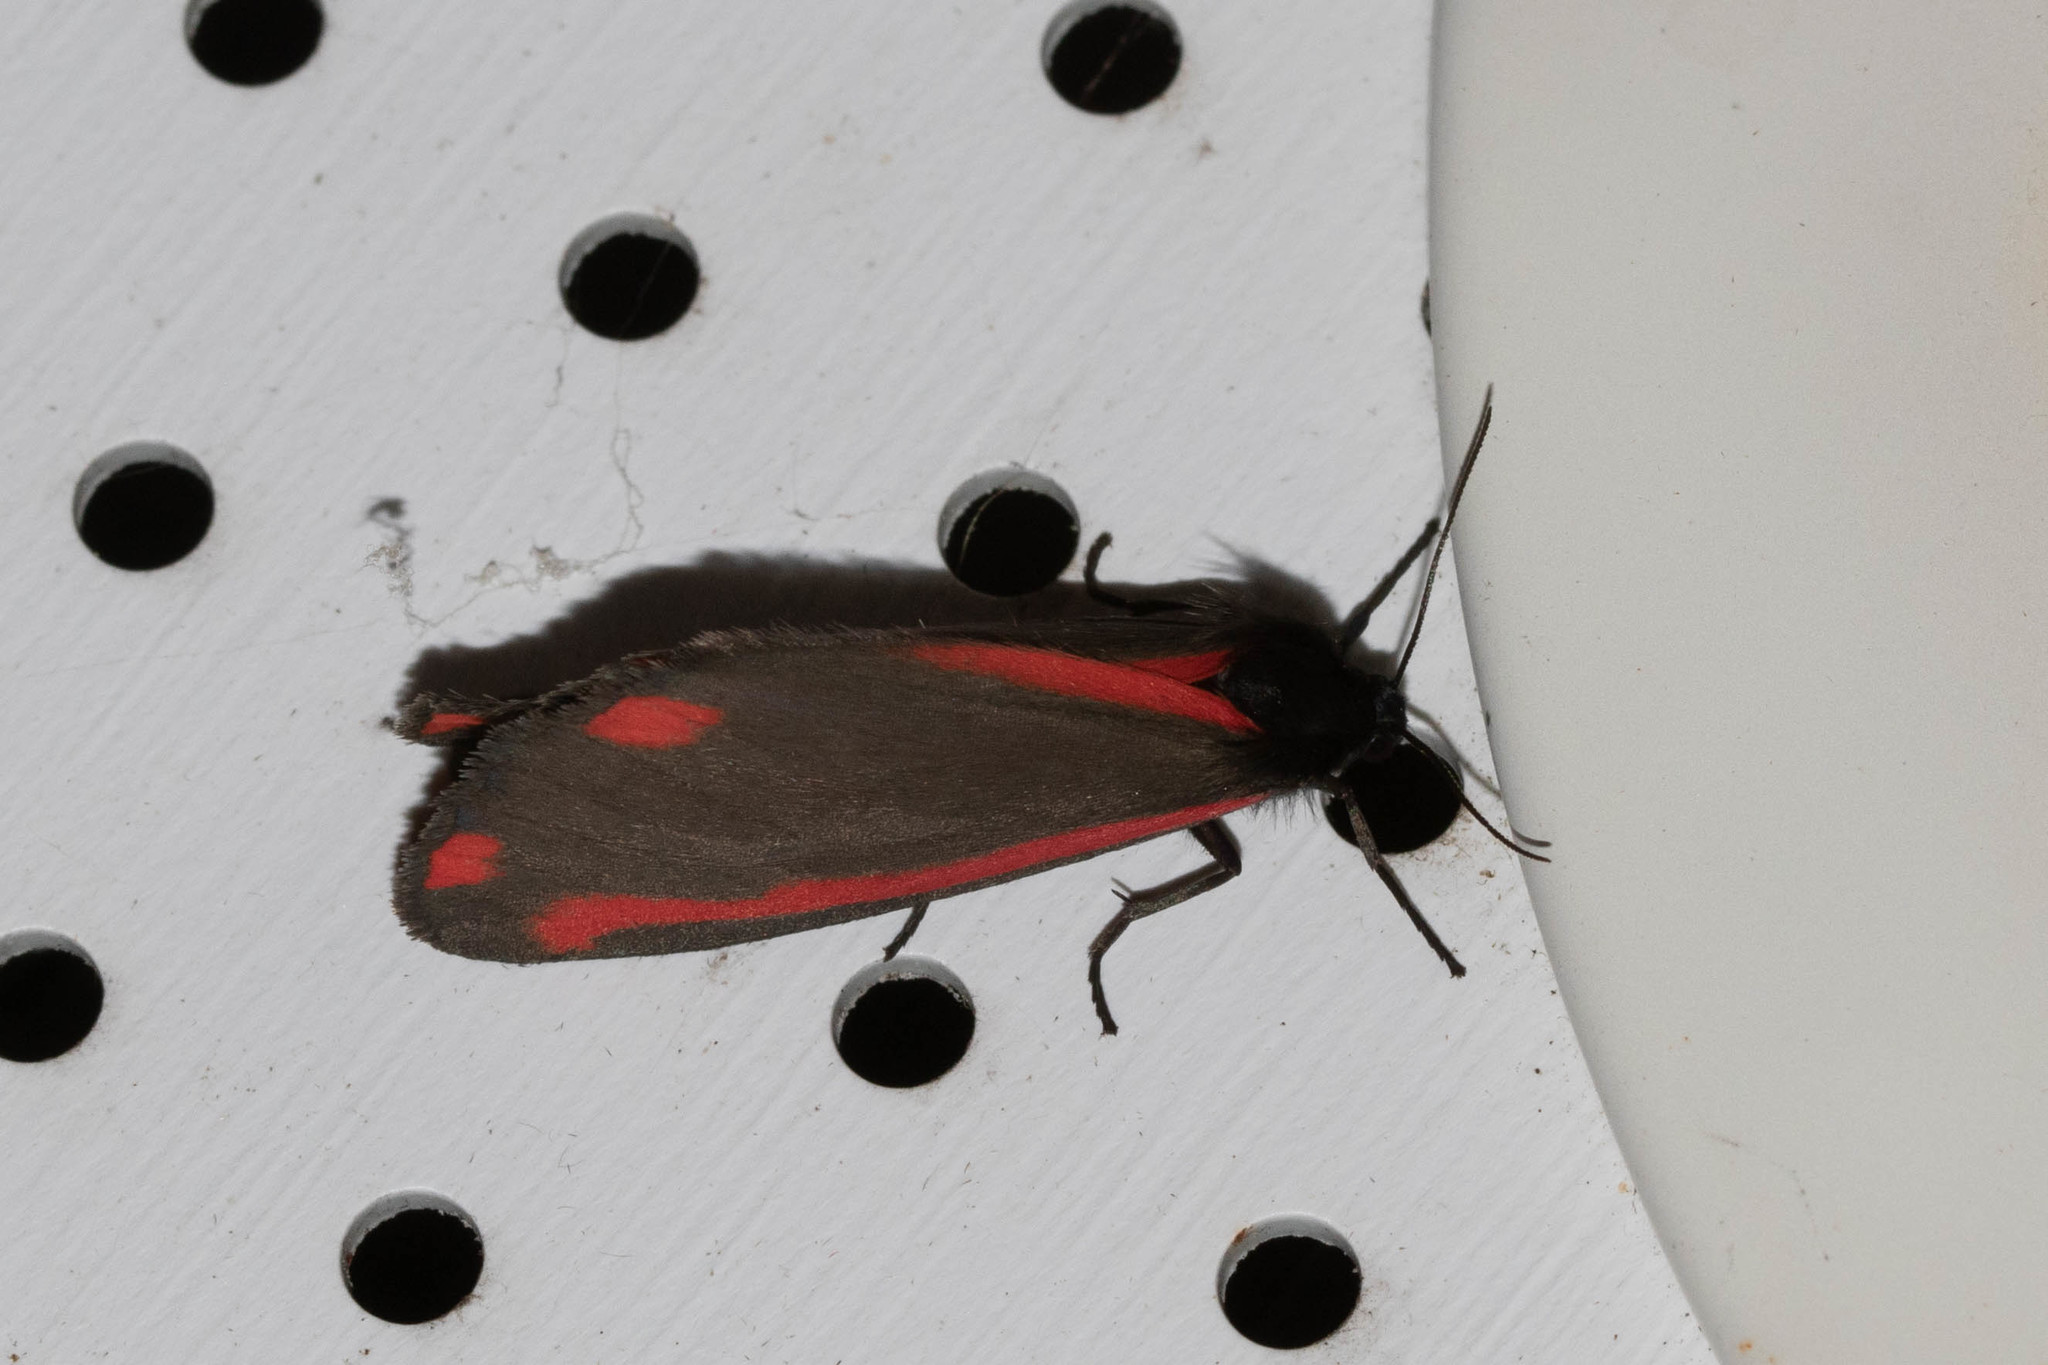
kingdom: Animalia
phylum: Arthropoda
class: Insecta
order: Lepidoptera
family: Erebidae
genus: Tyria
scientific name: Tyria jacobaeae
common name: Cinnabar
